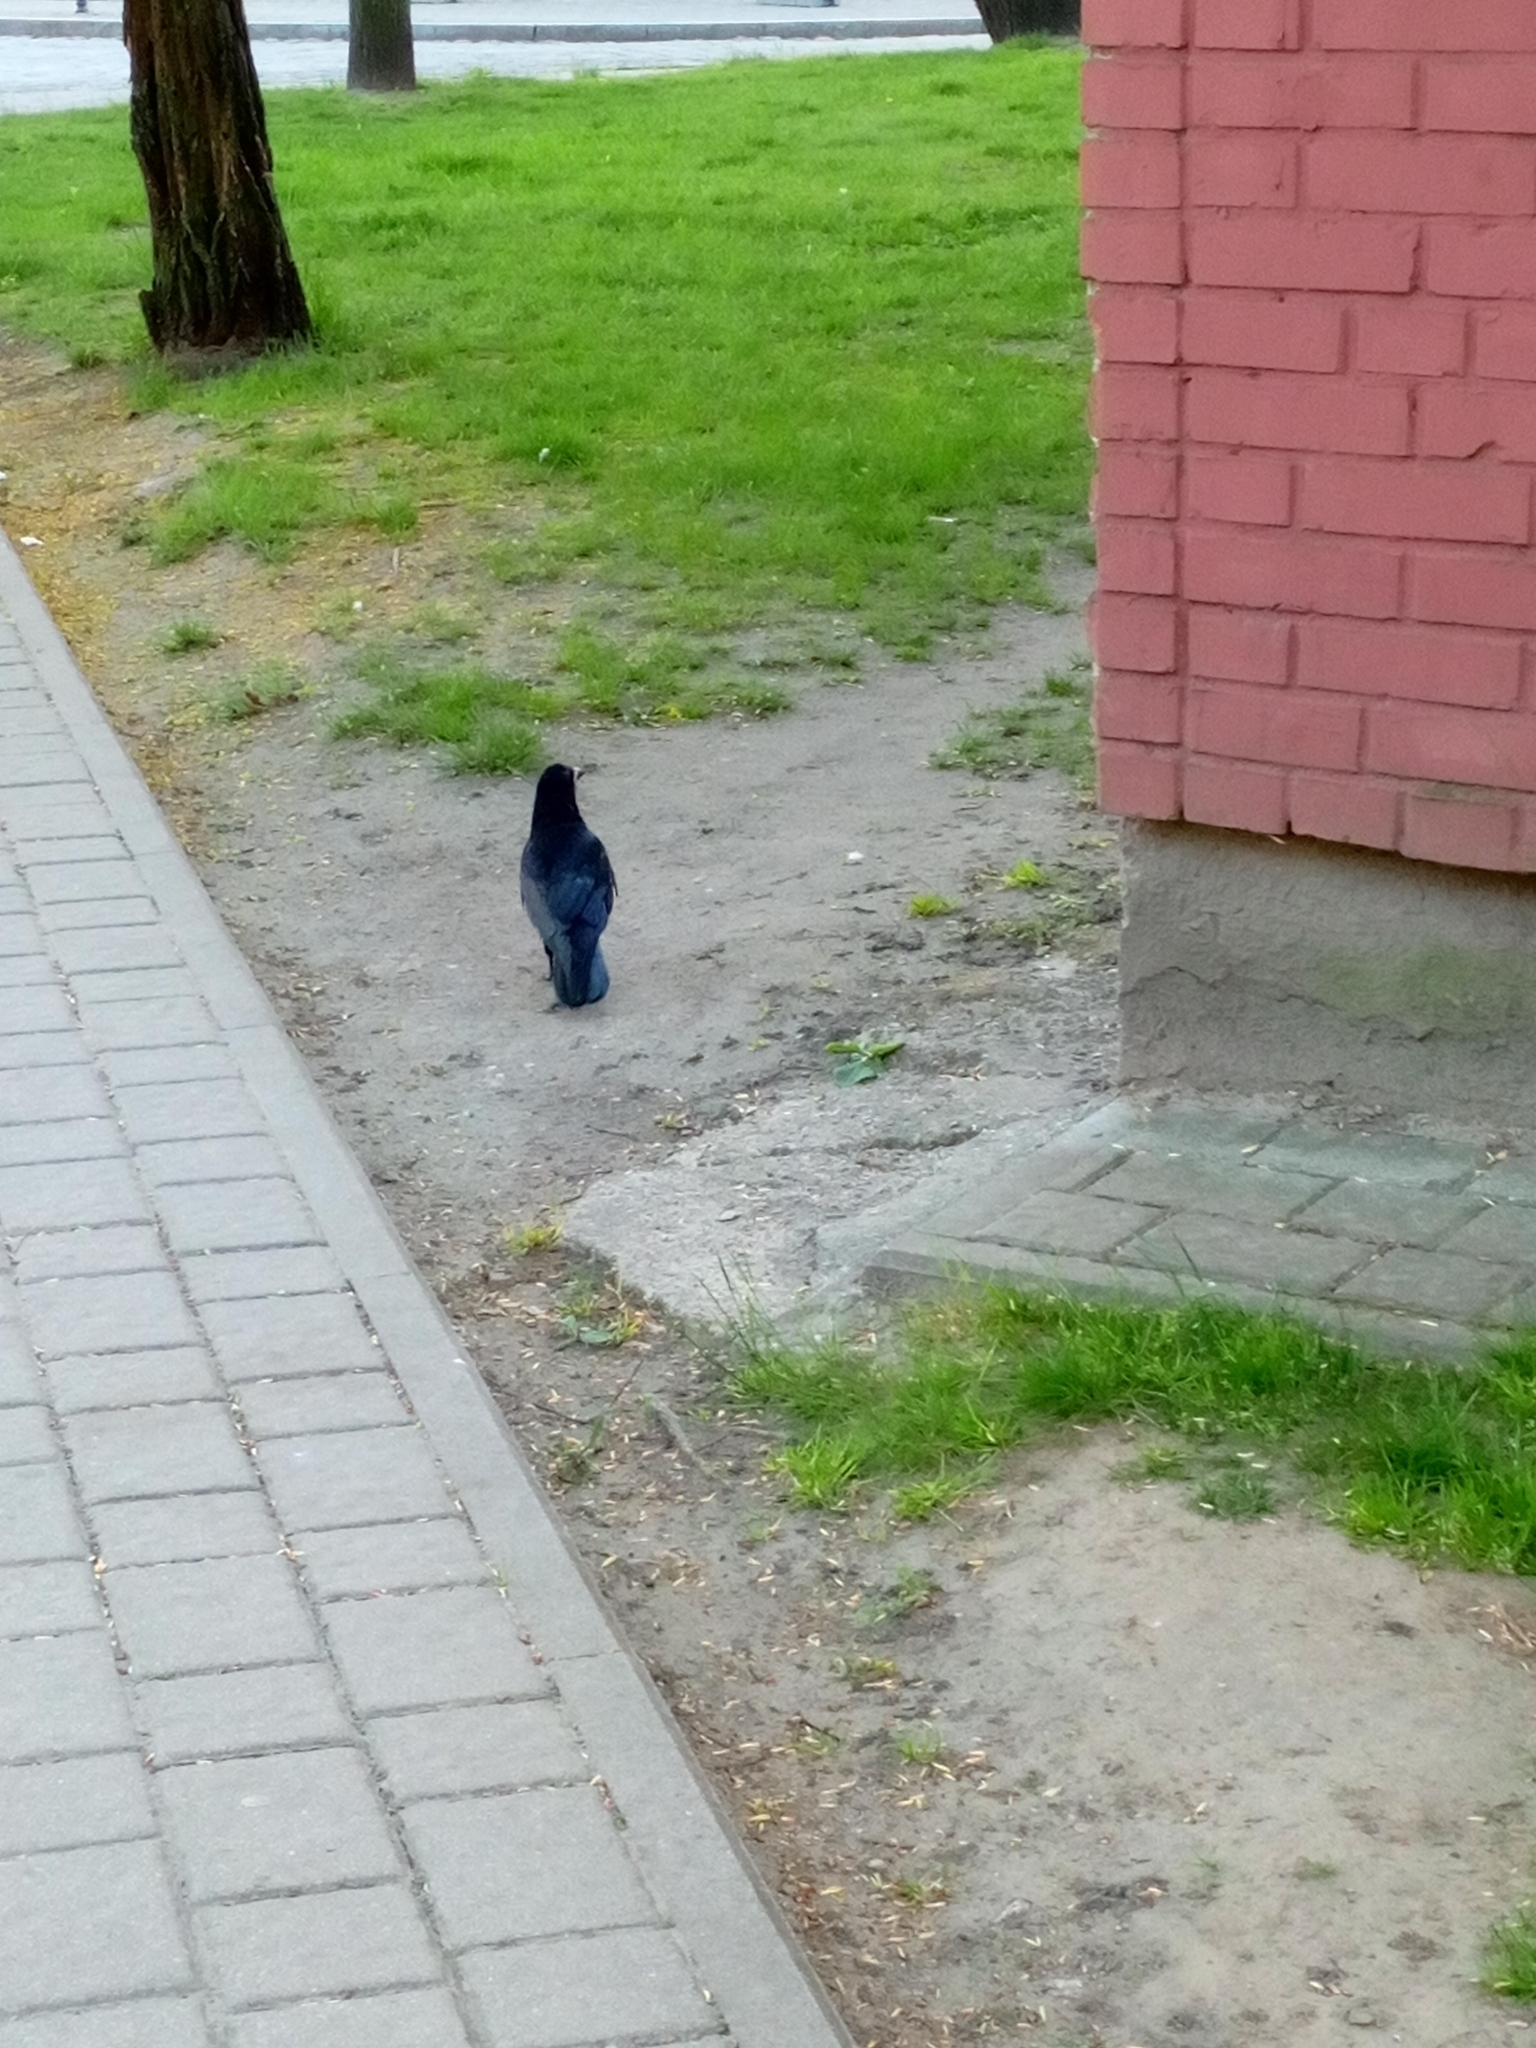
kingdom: Animalia
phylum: Chordata
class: Aves
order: Passeriformes
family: Corvidae
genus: Corvus
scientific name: Corvus frugilegus
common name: Rook
